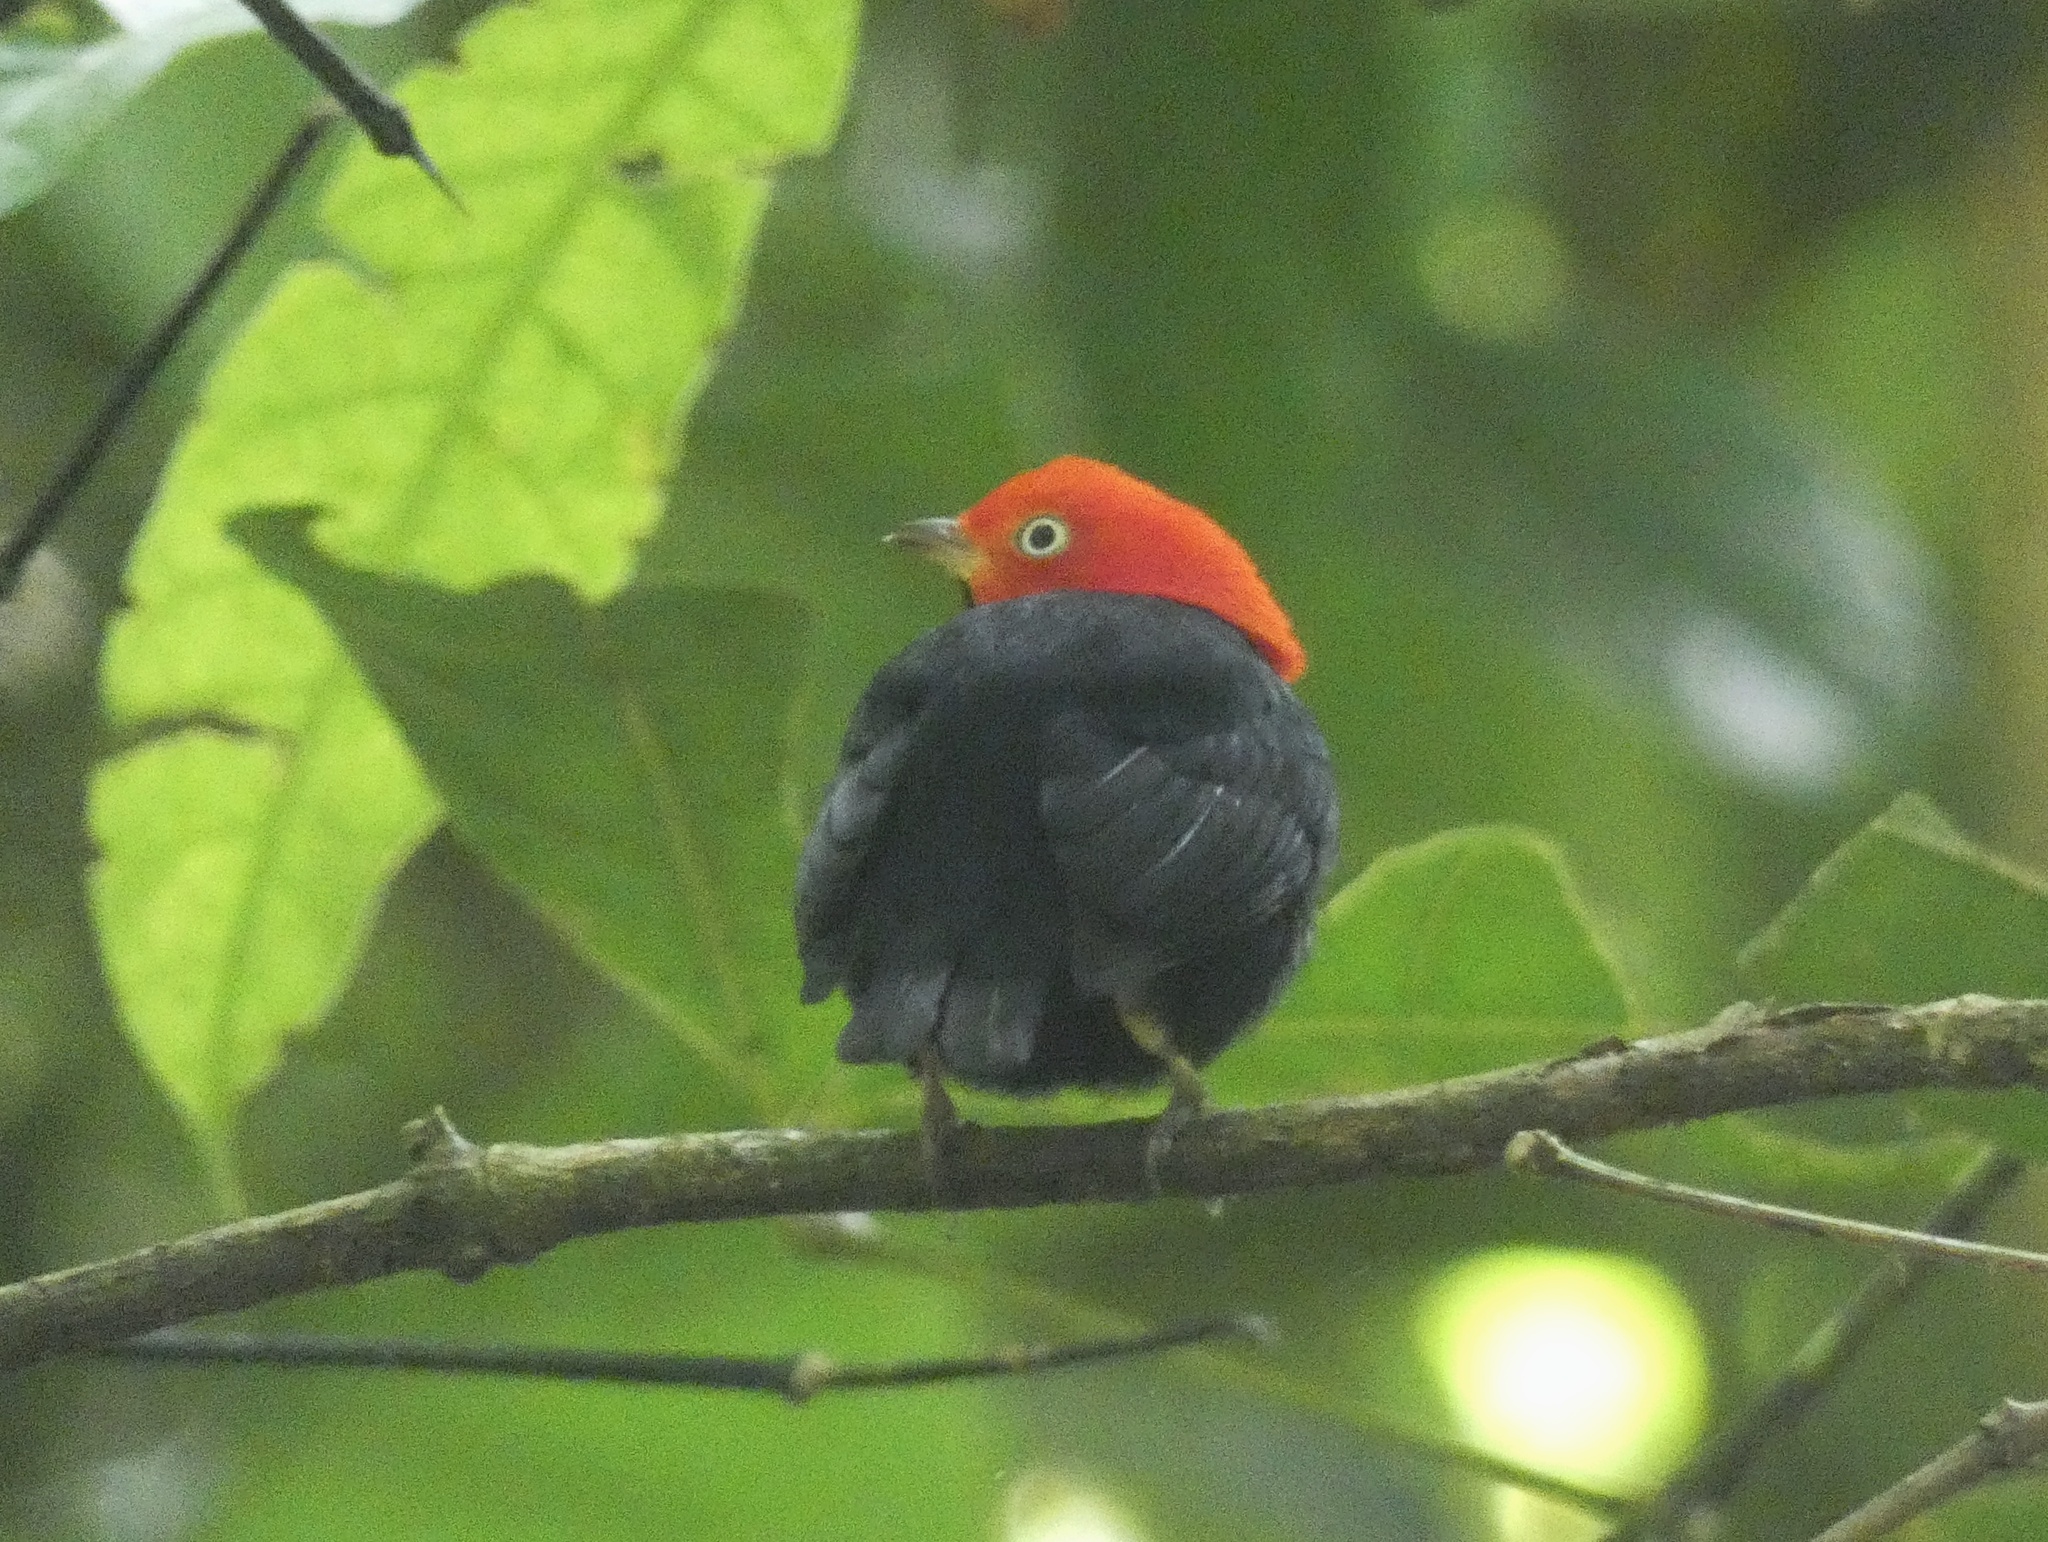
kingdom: Animalia
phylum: Chordata
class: Aves
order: Passeriformes
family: Pipridae
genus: Pipra
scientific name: Pipra mentalis
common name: Red-capped manakin
